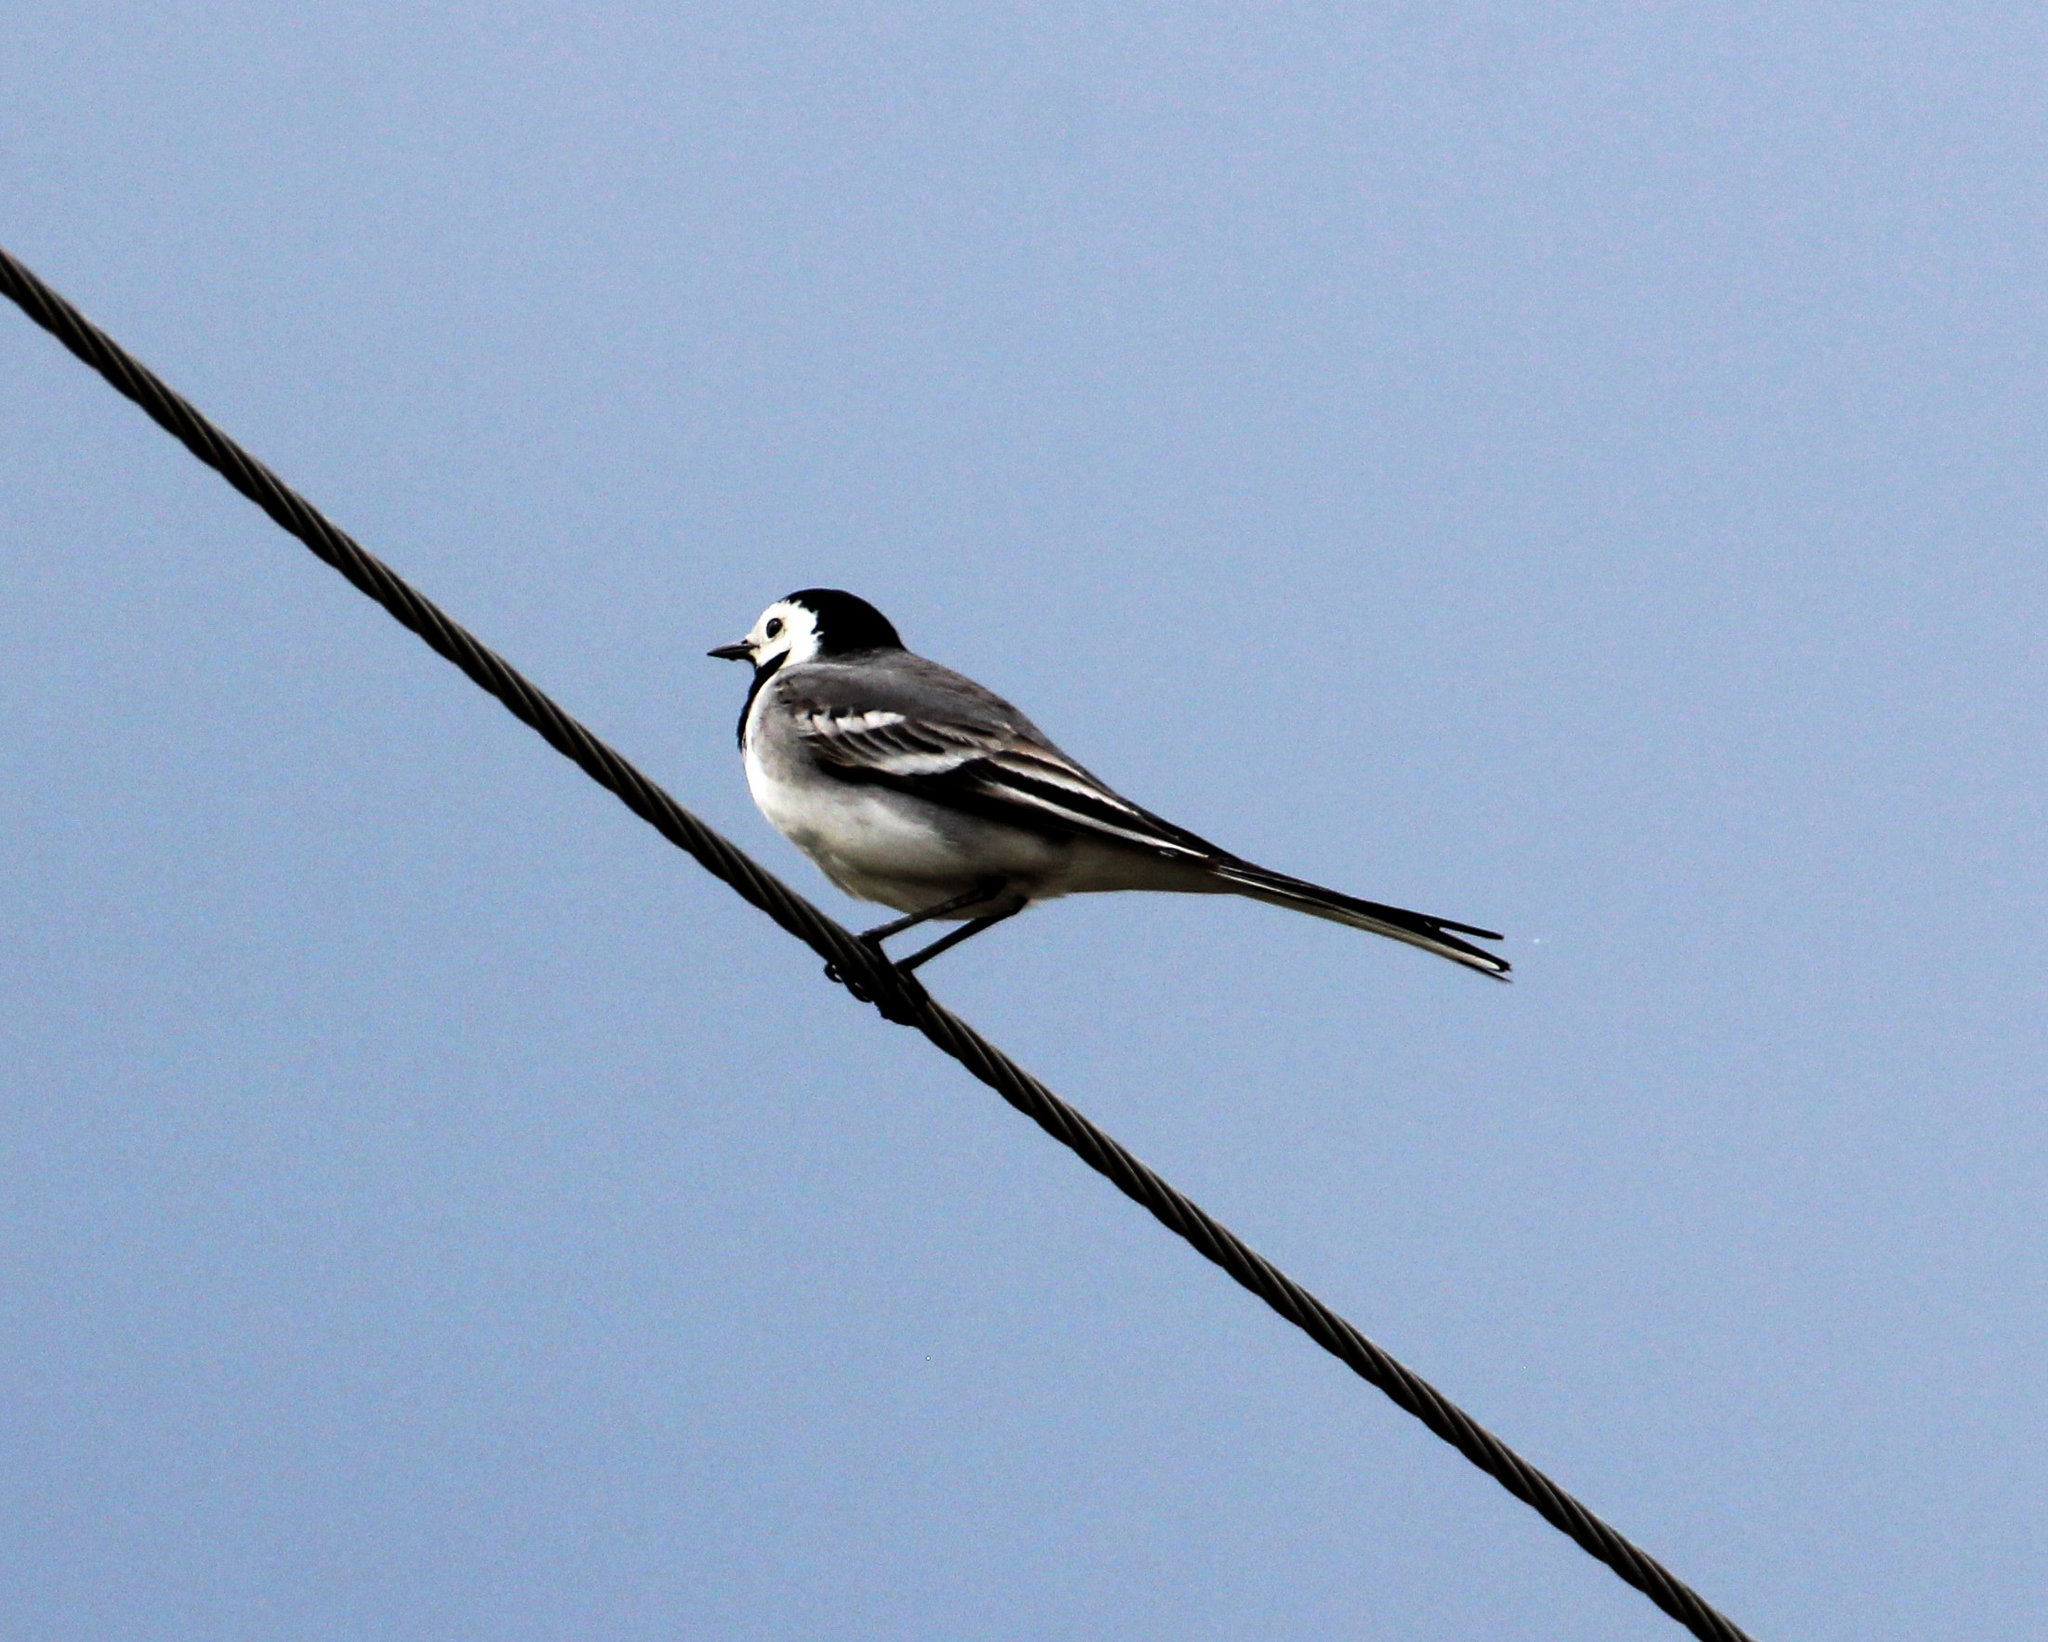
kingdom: Animalia
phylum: Chordata
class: Aves
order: Passeriformes
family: Motacillidae
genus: Motacilla
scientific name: Motacilla alba
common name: White wagtail
